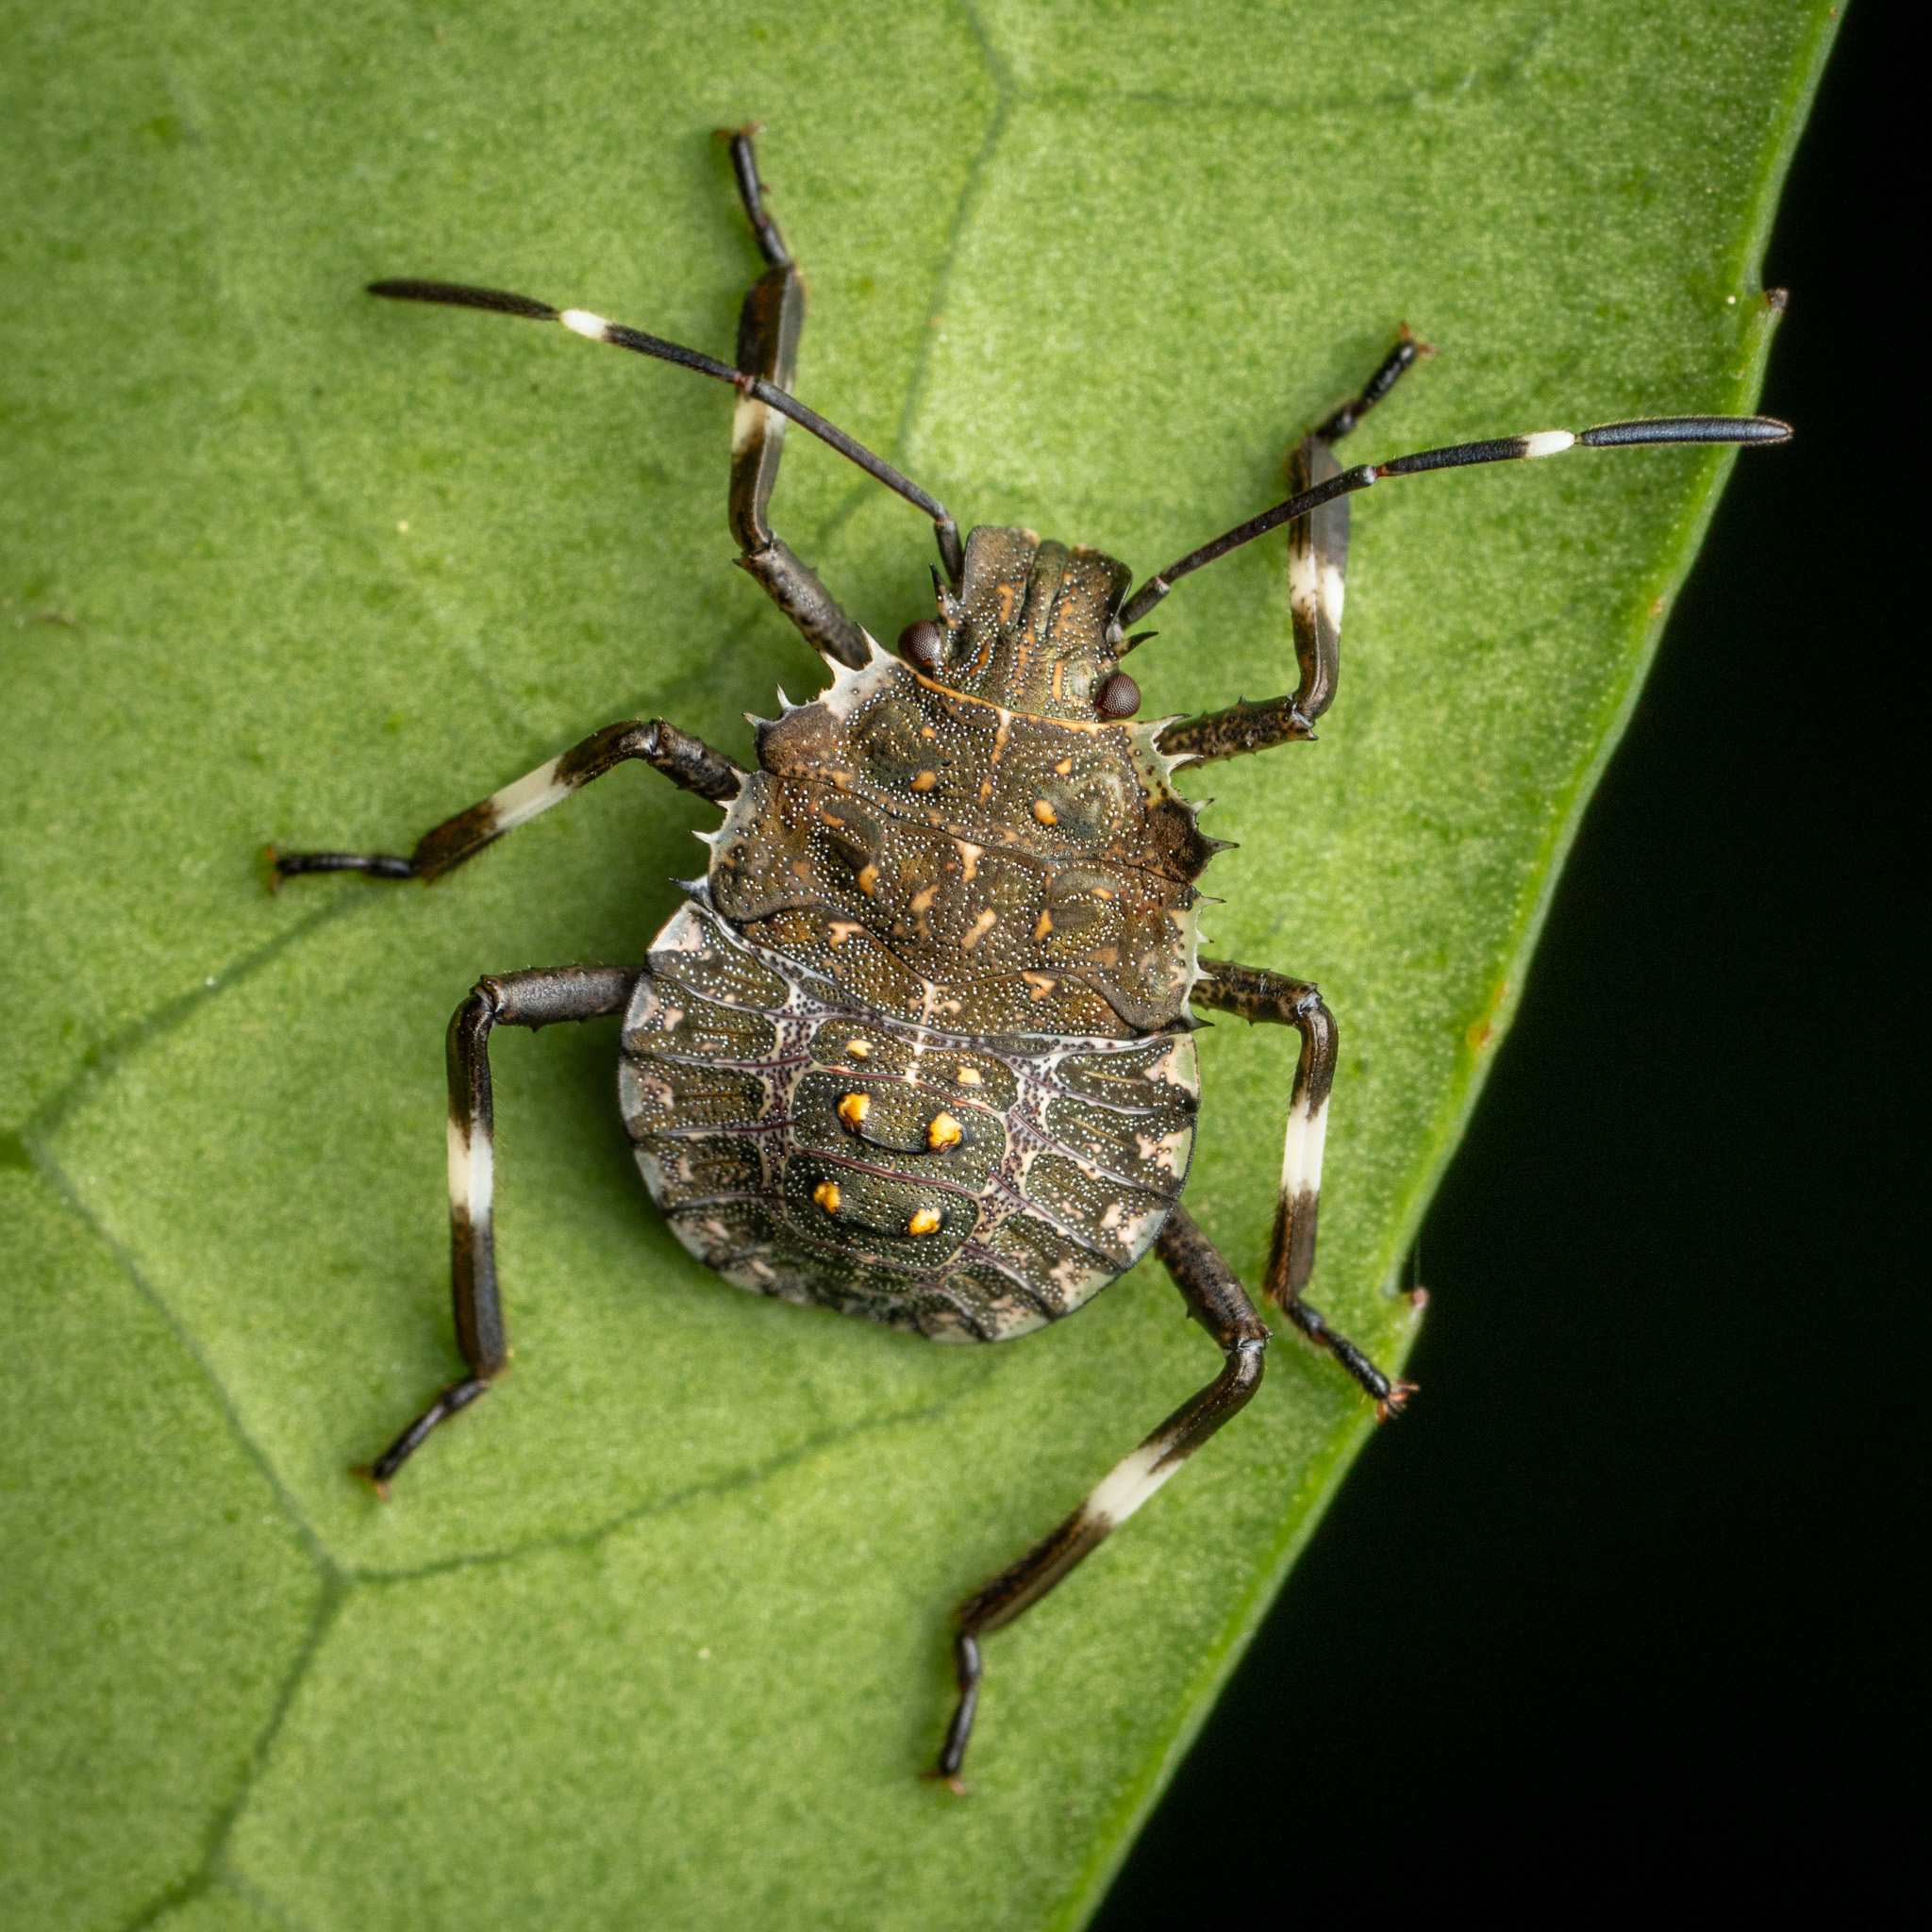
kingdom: Animalia
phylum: Arthropoda
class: Insecta
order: Hemiptera
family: Pentatomidae
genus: Halyomorpha
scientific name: Halyomorpha halys
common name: Brown marmorated stink bug
